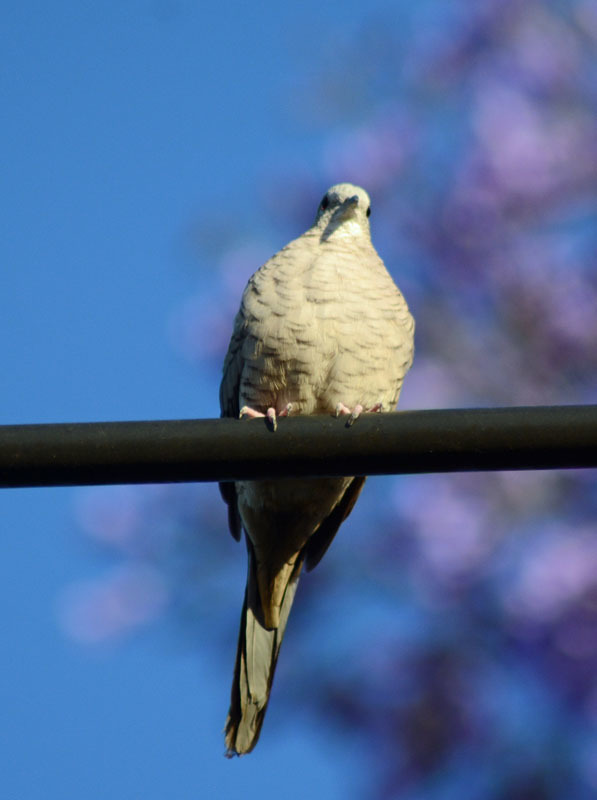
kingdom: Animalia
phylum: Chordata
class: Aves
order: Columbiformes
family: Columbidae
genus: Columbina
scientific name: Columbina inca
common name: Inca dove
